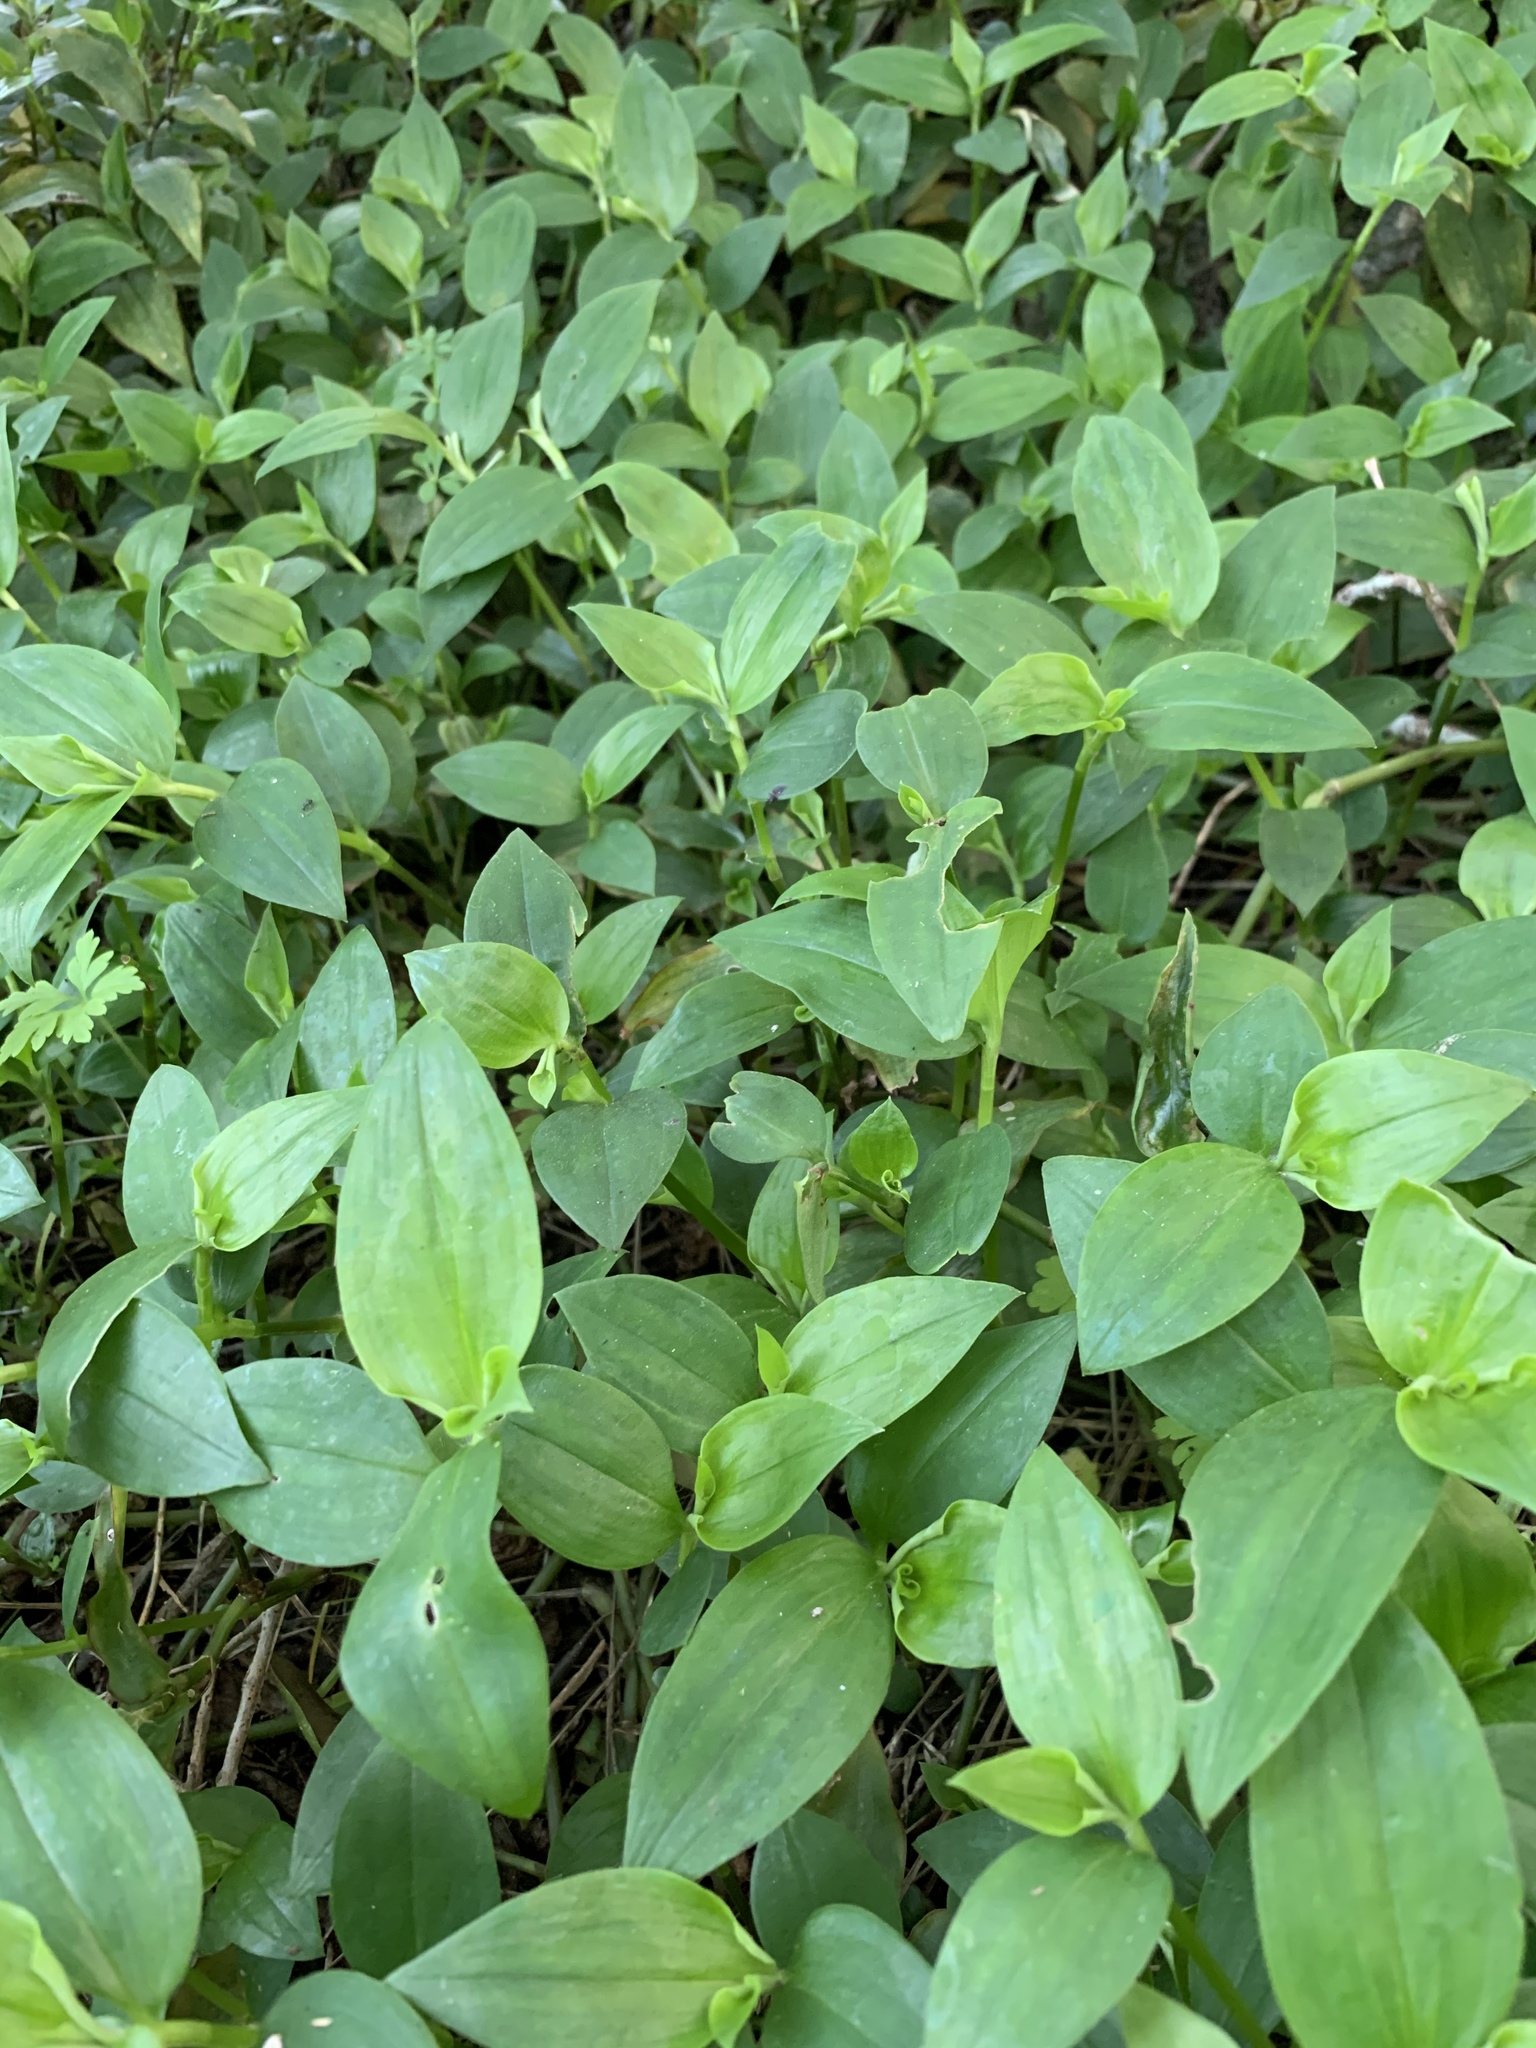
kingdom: Plantae
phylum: Tracheophyta
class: Liliopsida
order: Commelinales
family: Commelinaceae
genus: Tradescantia
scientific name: Tradescantia fluminensis
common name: Wandering-jew
